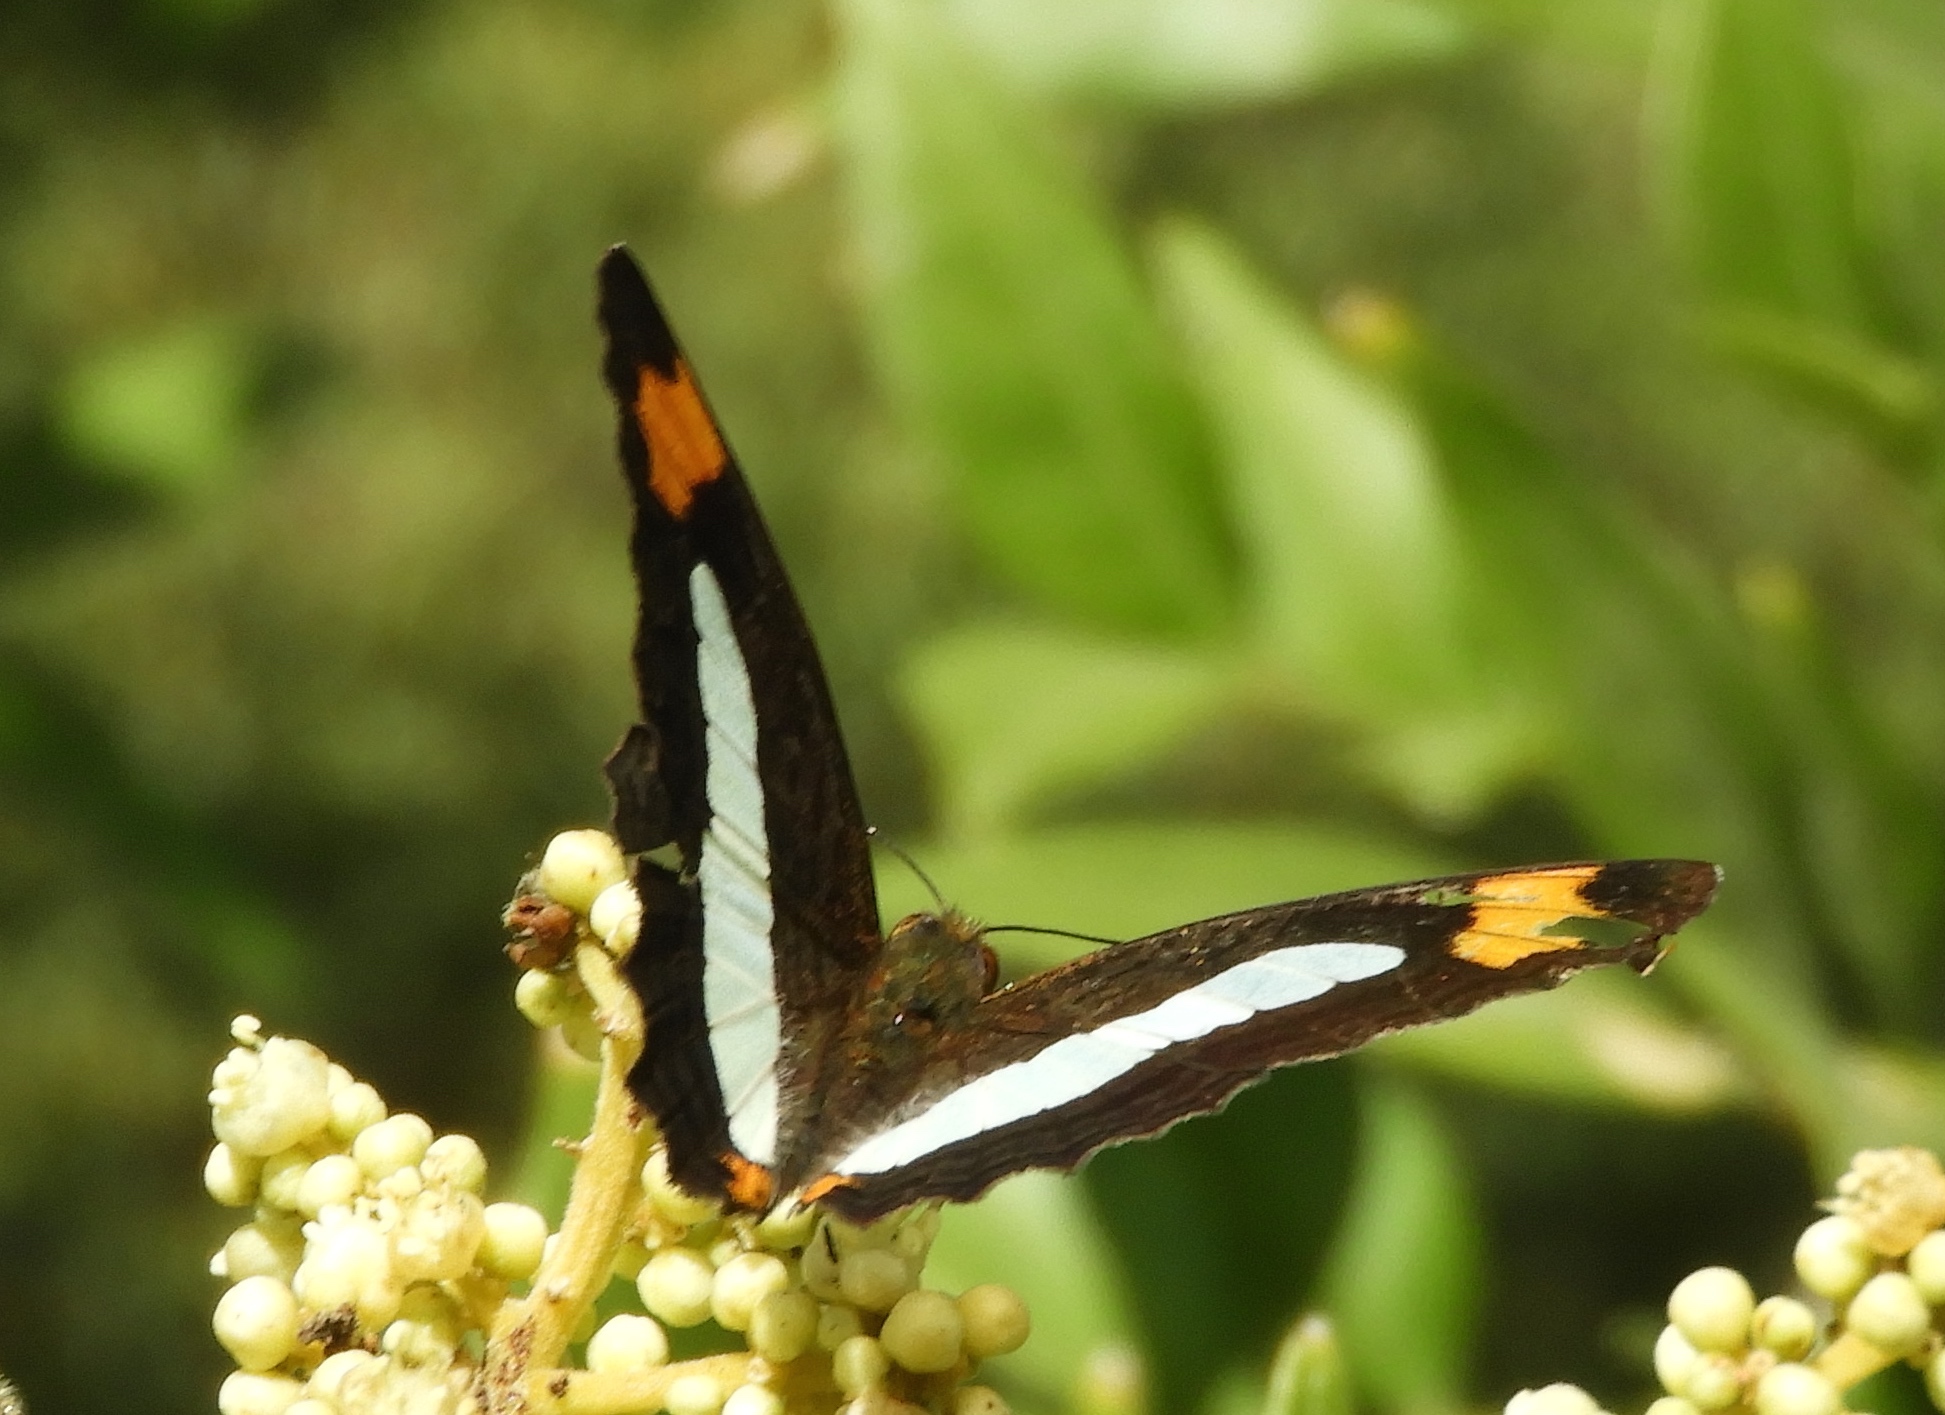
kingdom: Animalia
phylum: Arthropoda
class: Insecta
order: Lepidoptera
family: Nymphalidae
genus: Limenitis
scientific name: Limenitis iphiclus
